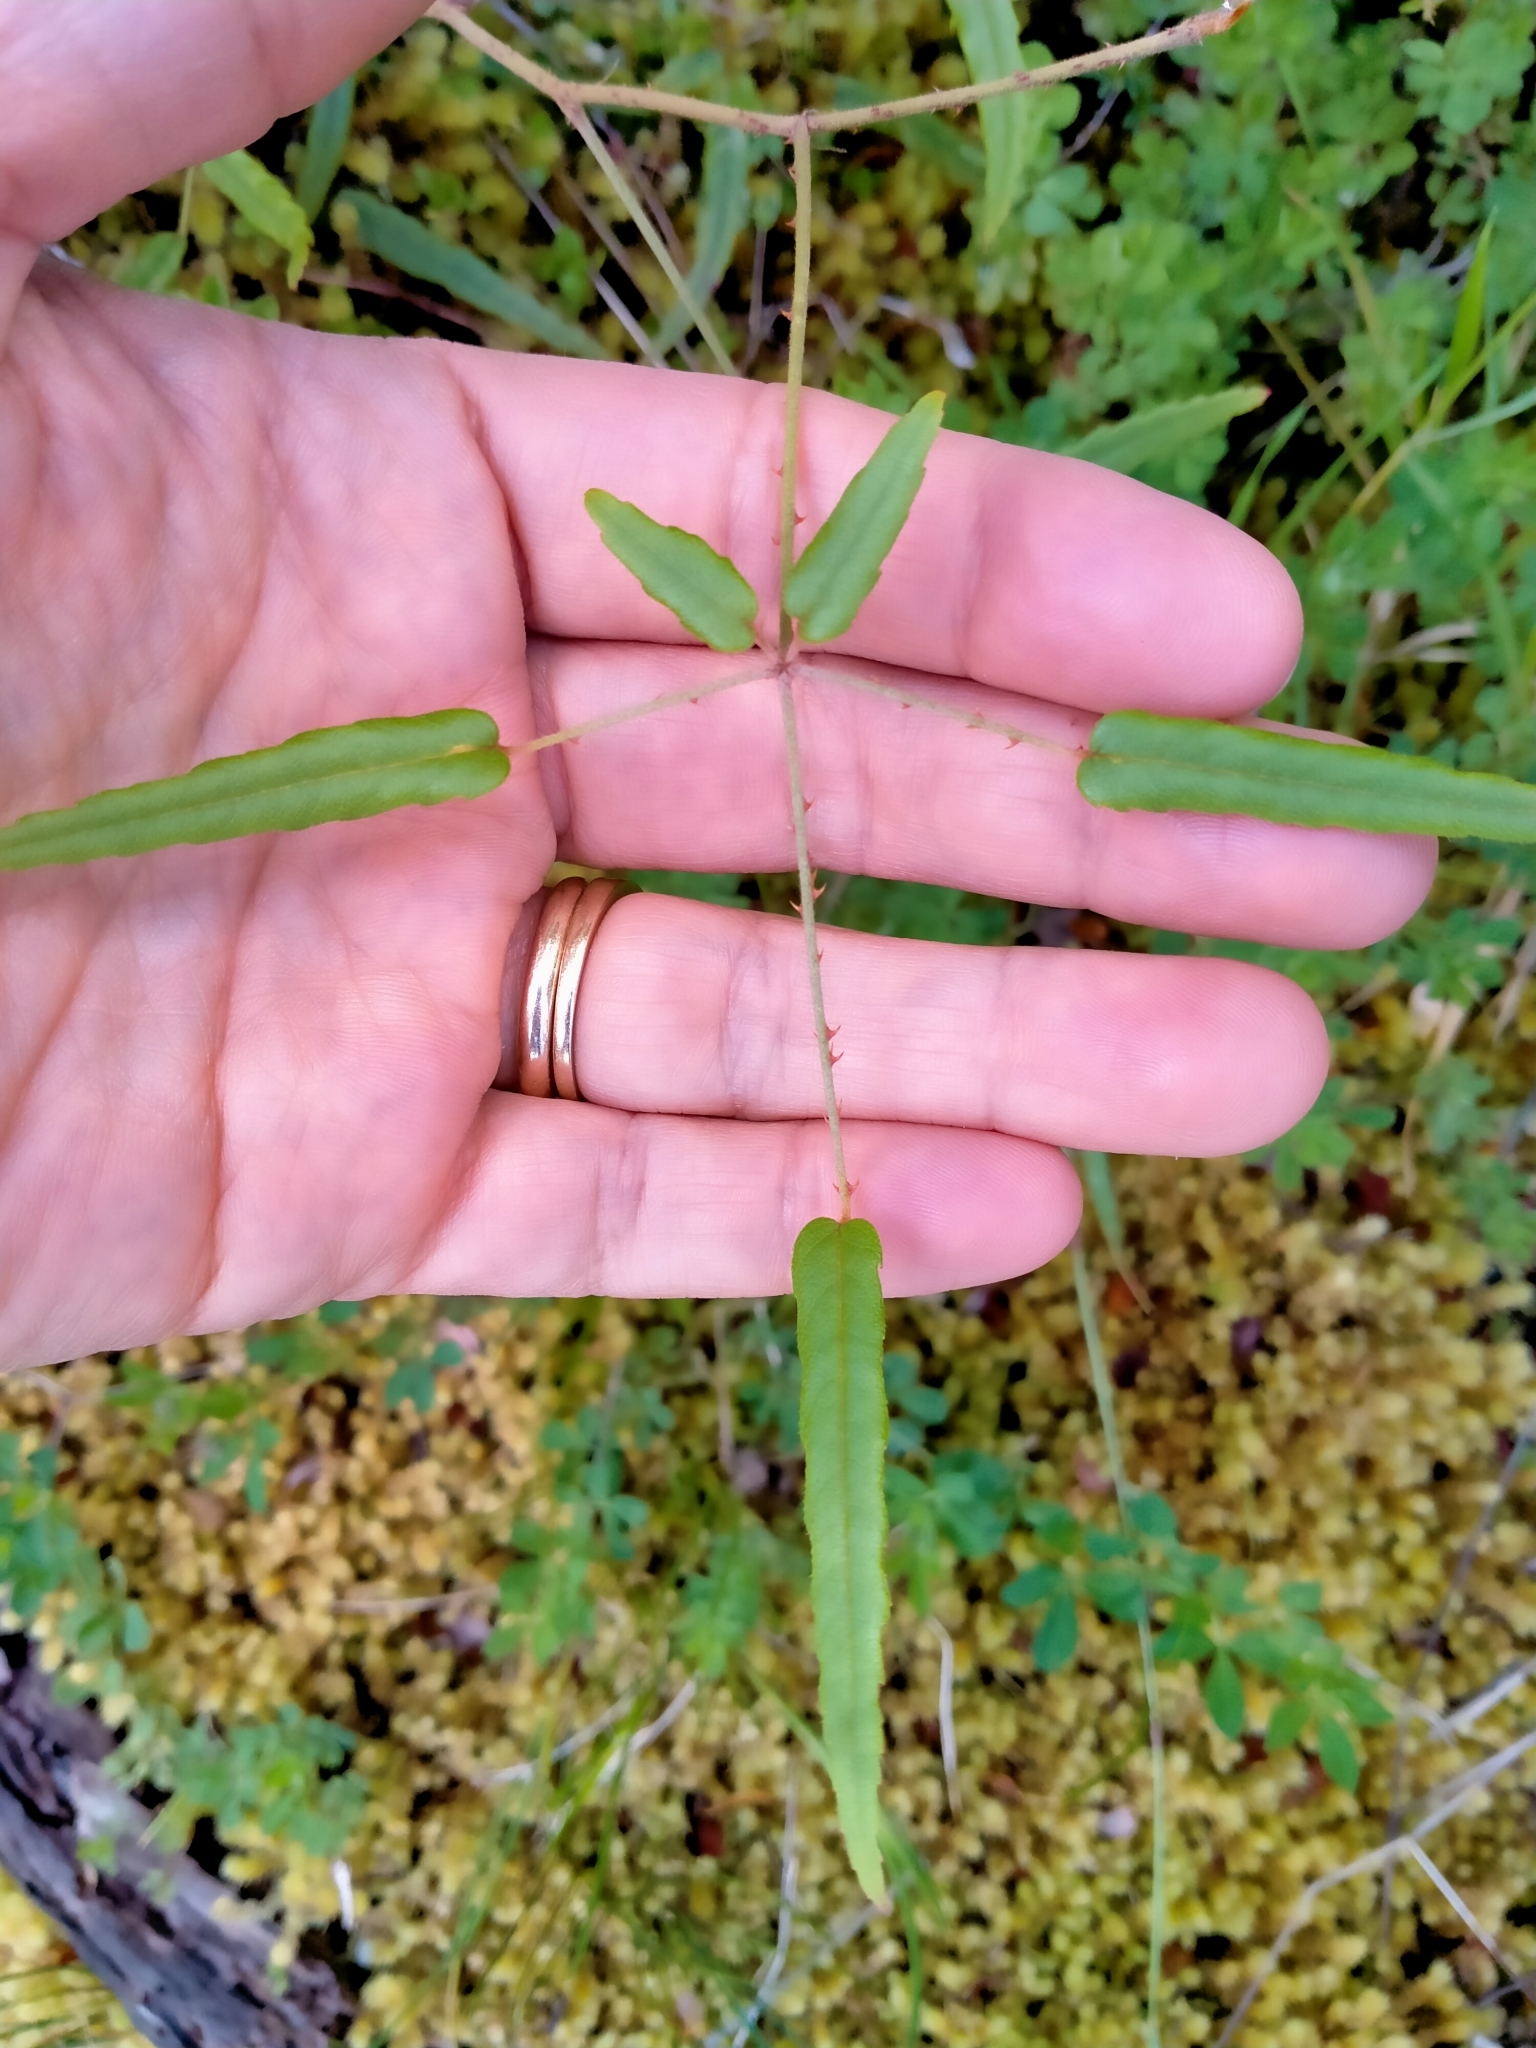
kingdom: Plantae
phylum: Tracheophyta
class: Magnoliopsida
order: Rosales
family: Rosaceae
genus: Rubus
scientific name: Rubus schmidelioides
